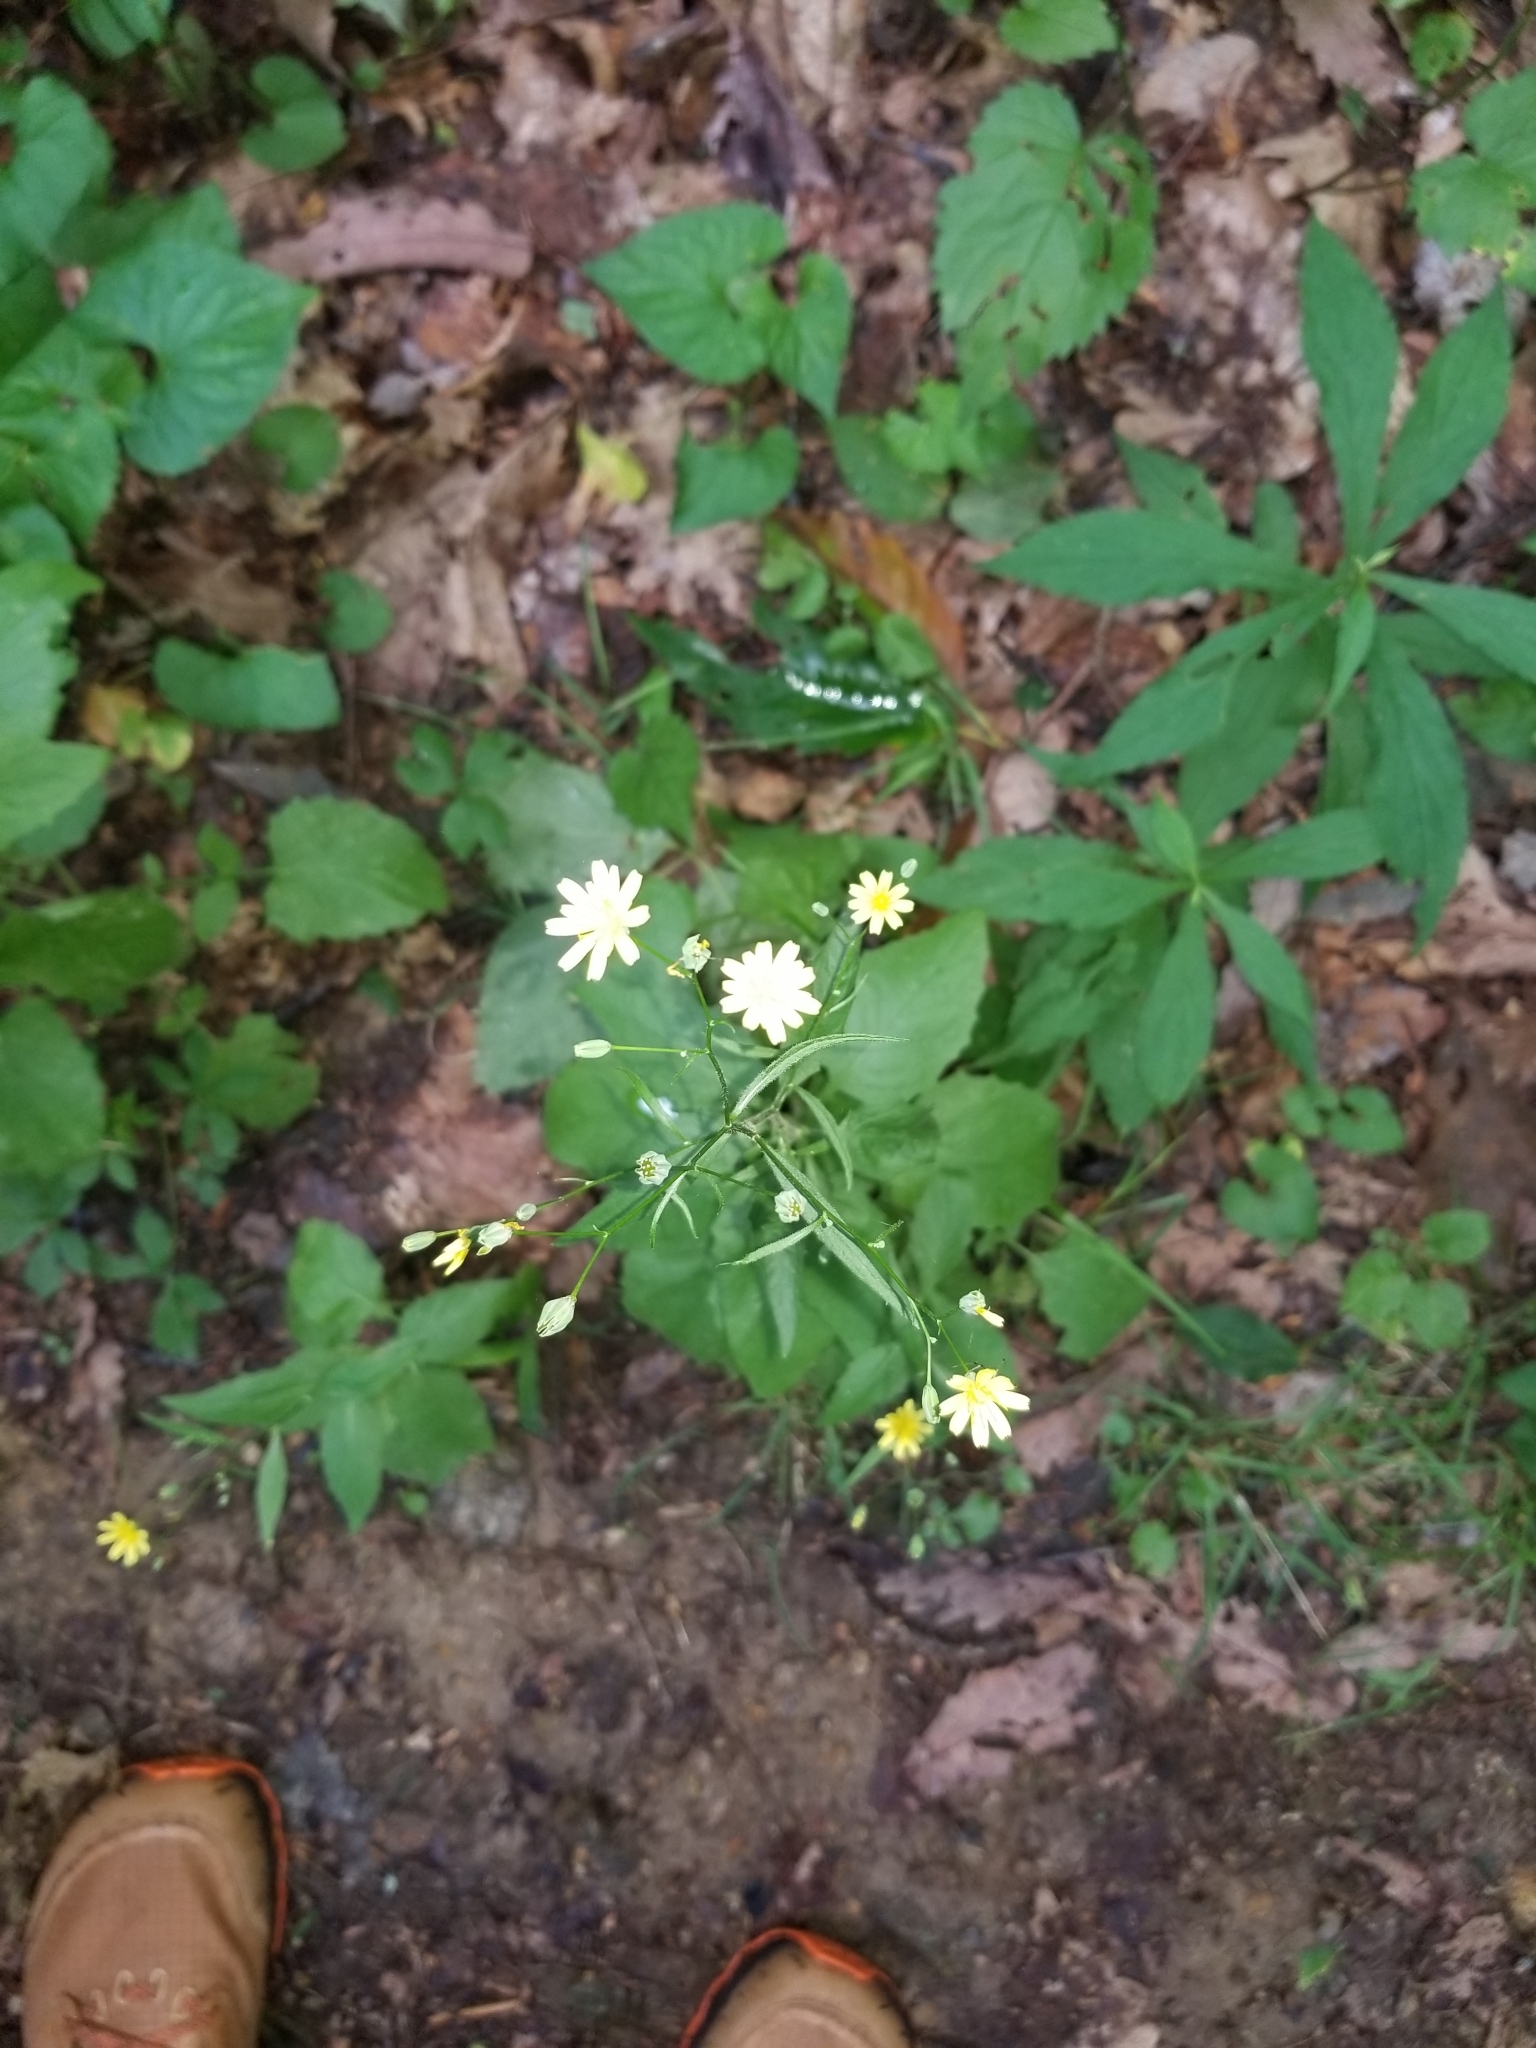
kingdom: Plantae
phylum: Tracheophyta
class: Magnoliopsida
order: Asterales
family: Asteraceae
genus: Lapsana
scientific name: Lapsana communis
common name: Nipplewort
